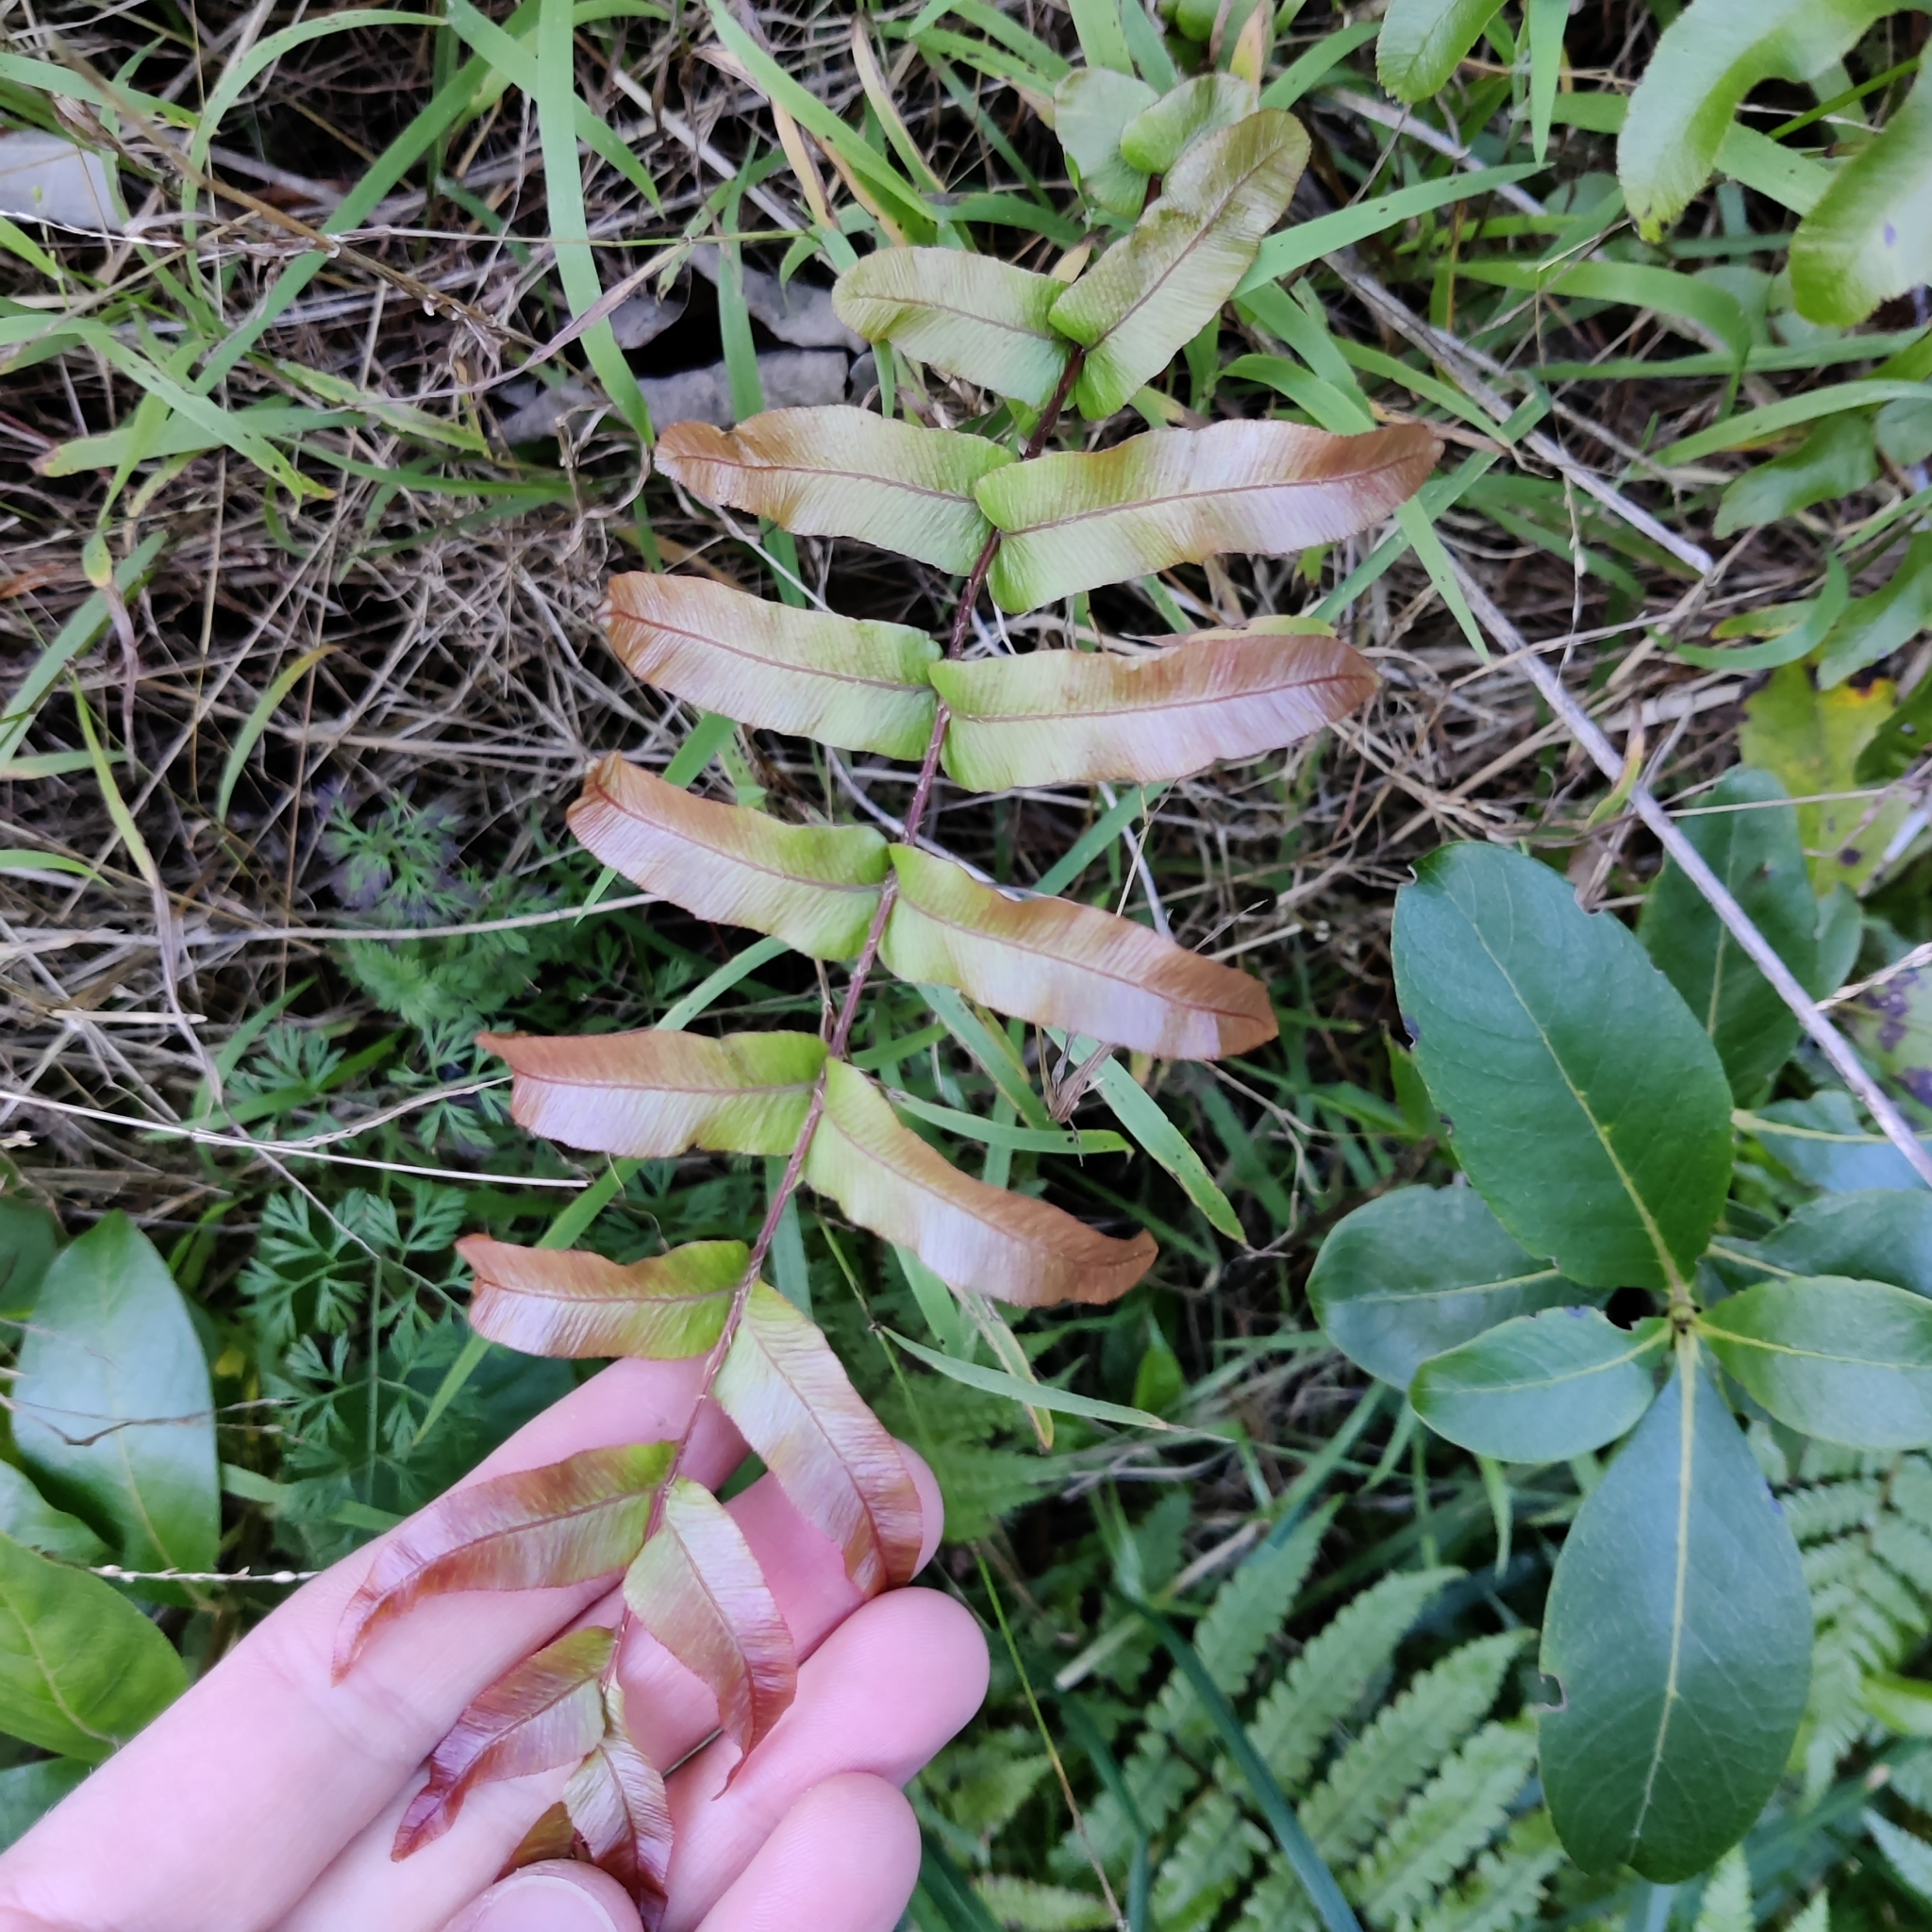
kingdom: Plantae
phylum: Tracheophyta
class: Polypodiopsida
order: Polypodiales
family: Blechnaceae
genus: Parablechnum
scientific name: Parablechnum minus
